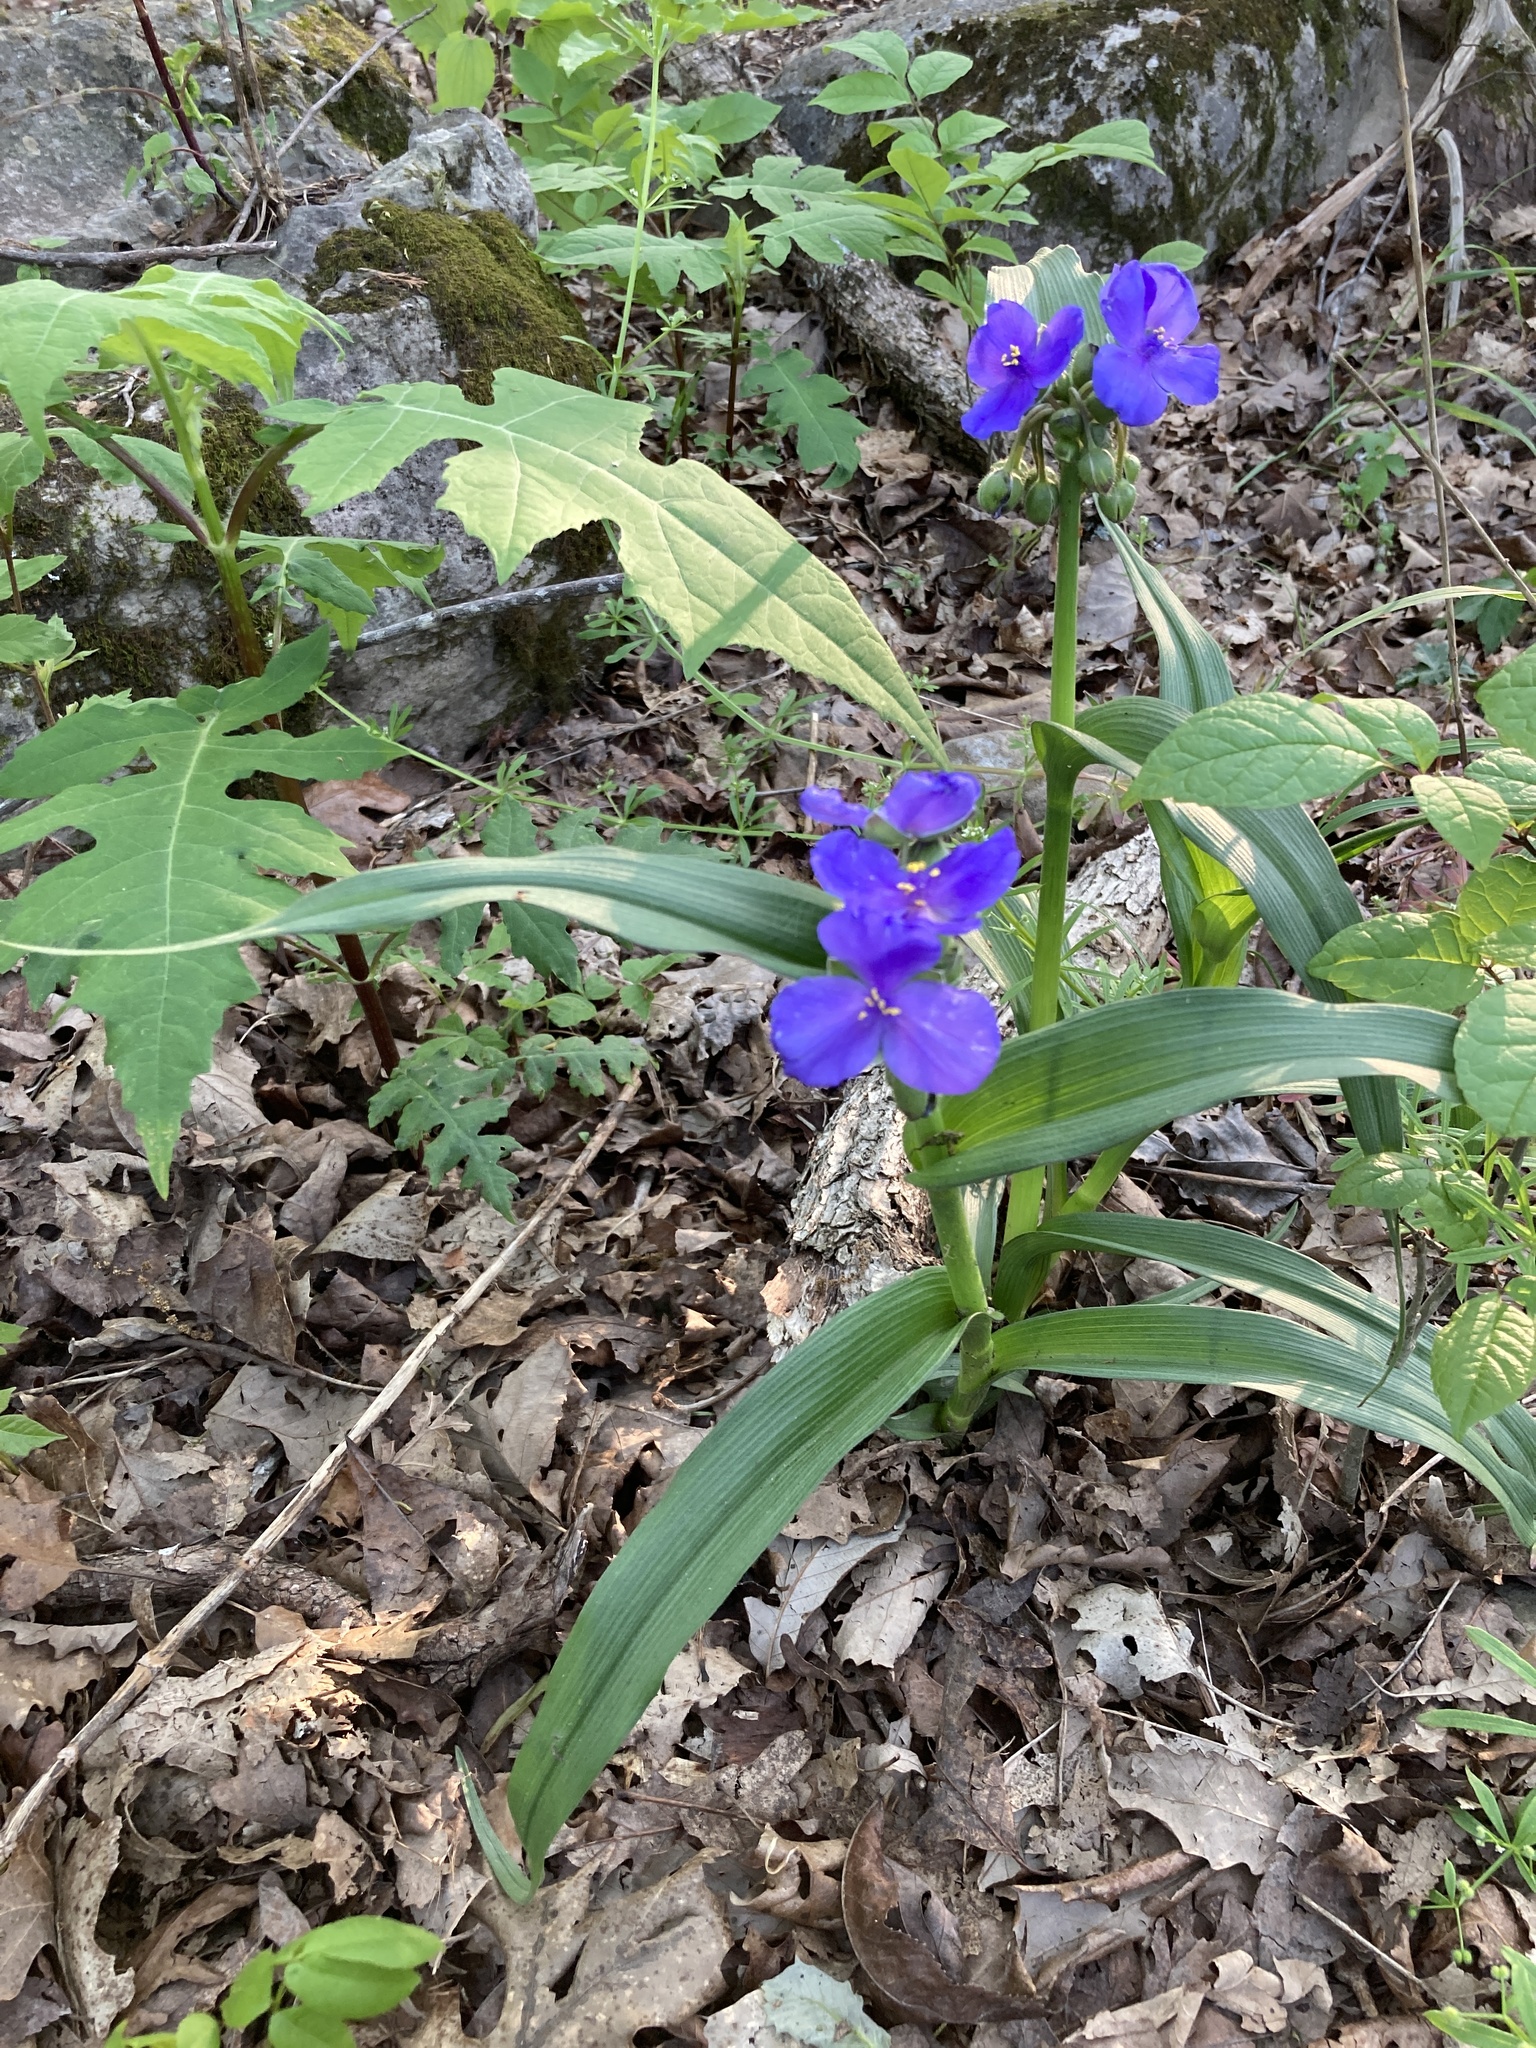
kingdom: Plantae
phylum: Tracheophyta
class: Liliopsida
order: Commelinales
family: Commelinaceae
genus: Tradescantia
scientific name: Tradescantia virginiana
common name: Spiderwort
